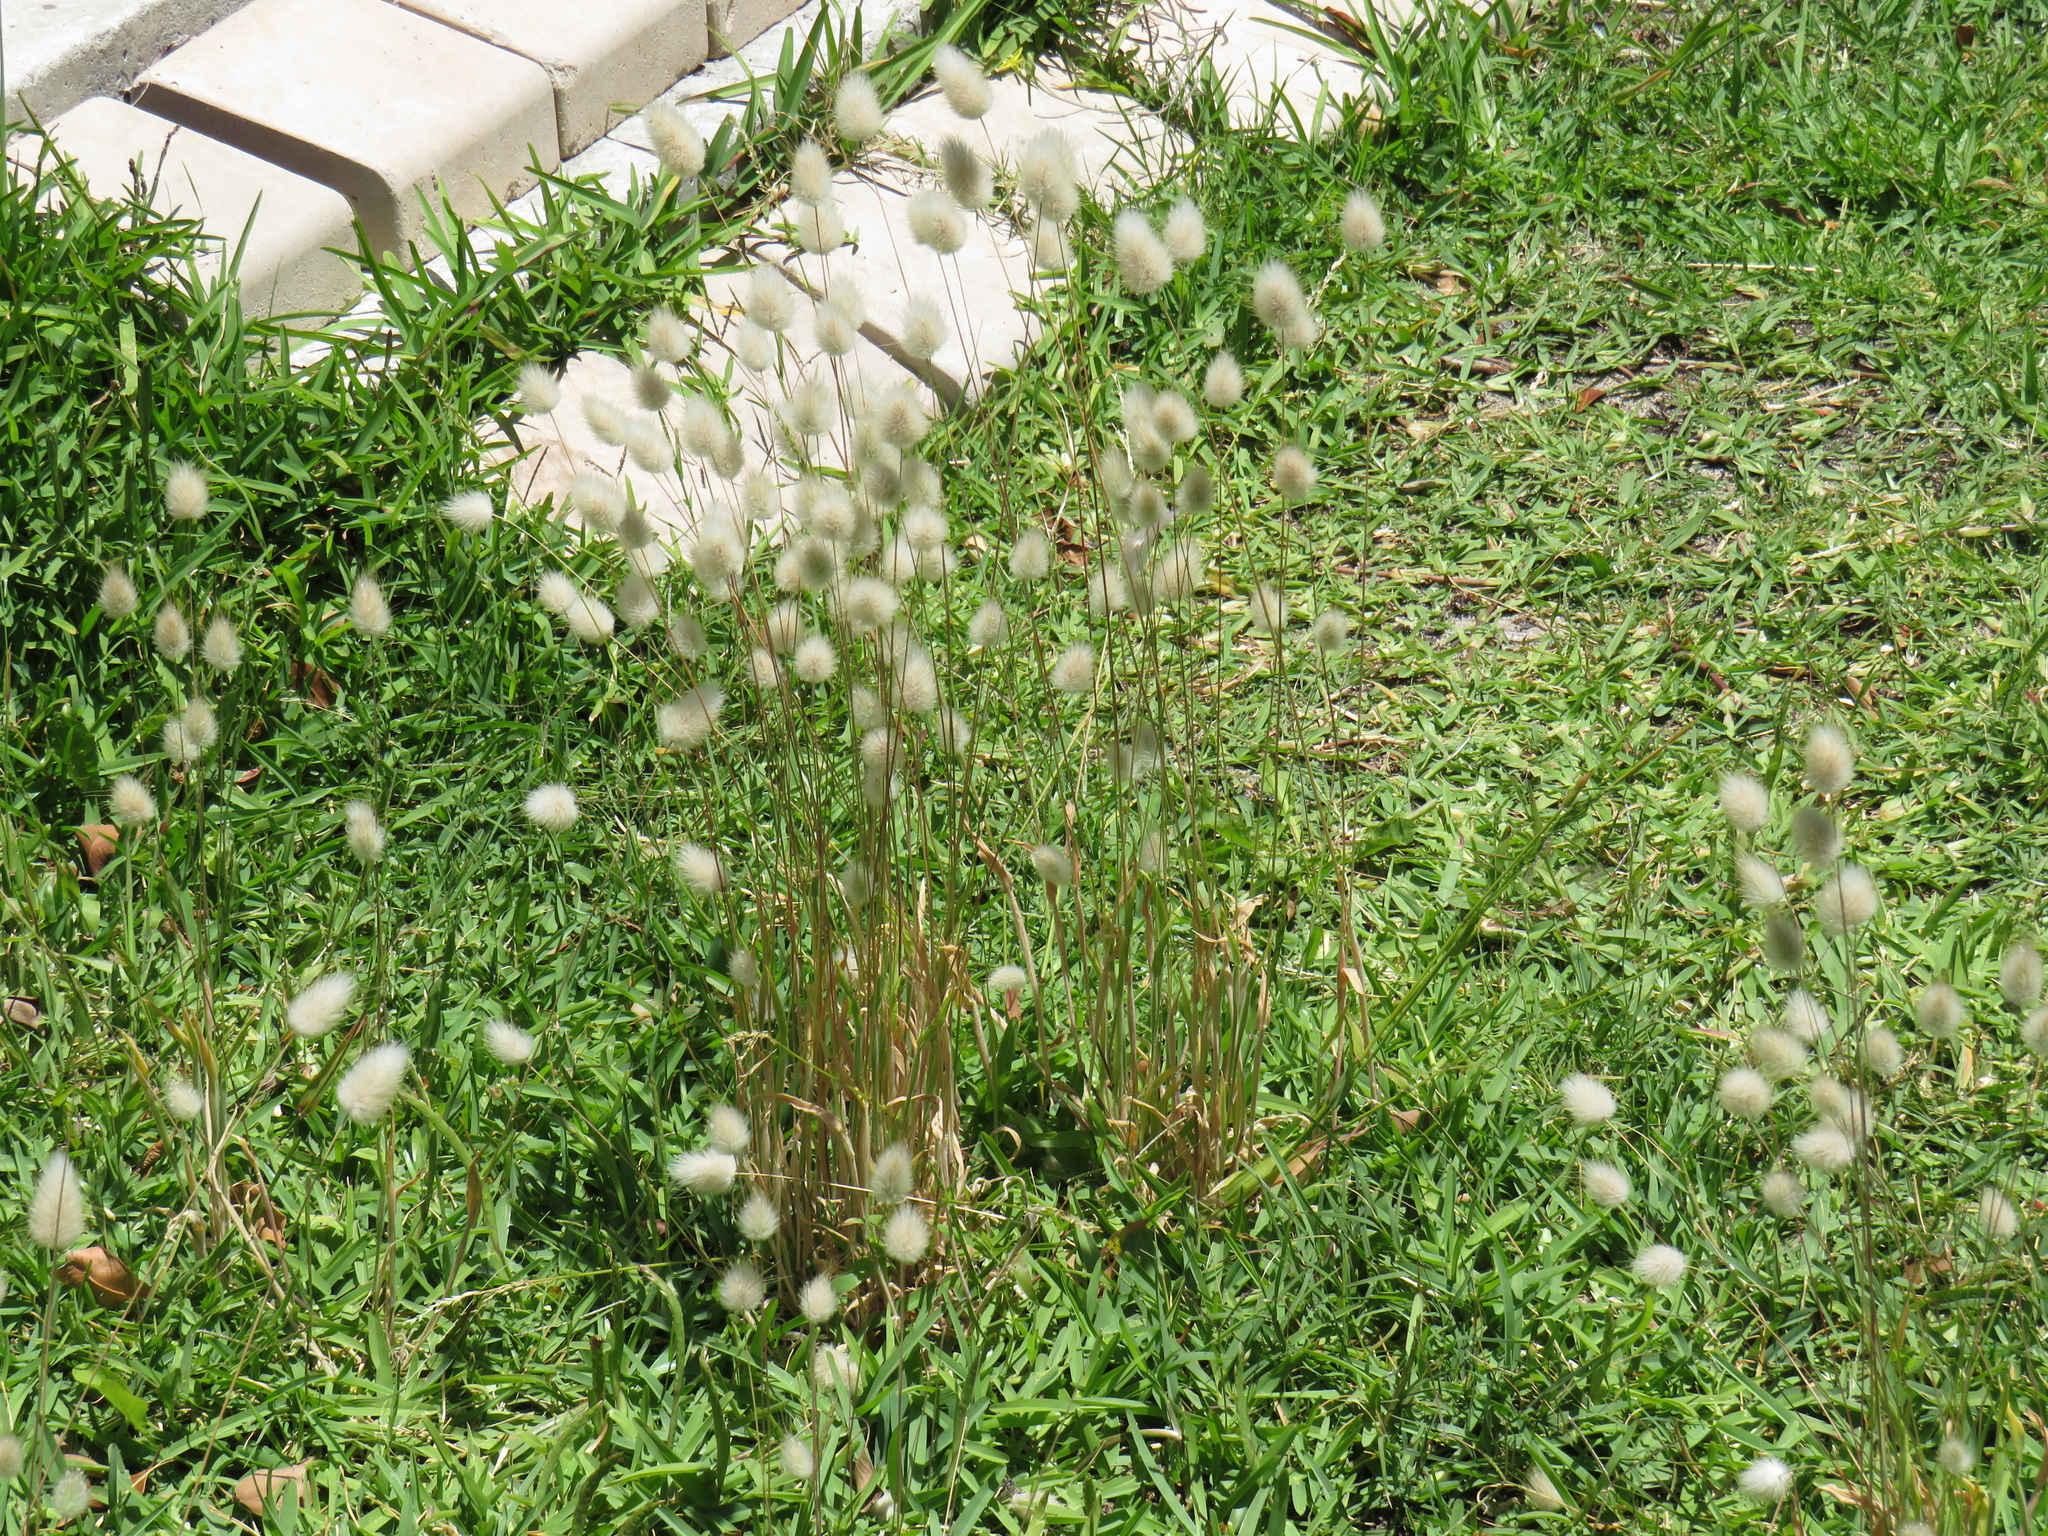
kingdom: Plantae
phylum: Tracheophyta
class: Liliopsida
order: Poales
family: Poaceae
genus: Lagurus
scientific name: Lagurus ovatus
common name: Hare's-tail
